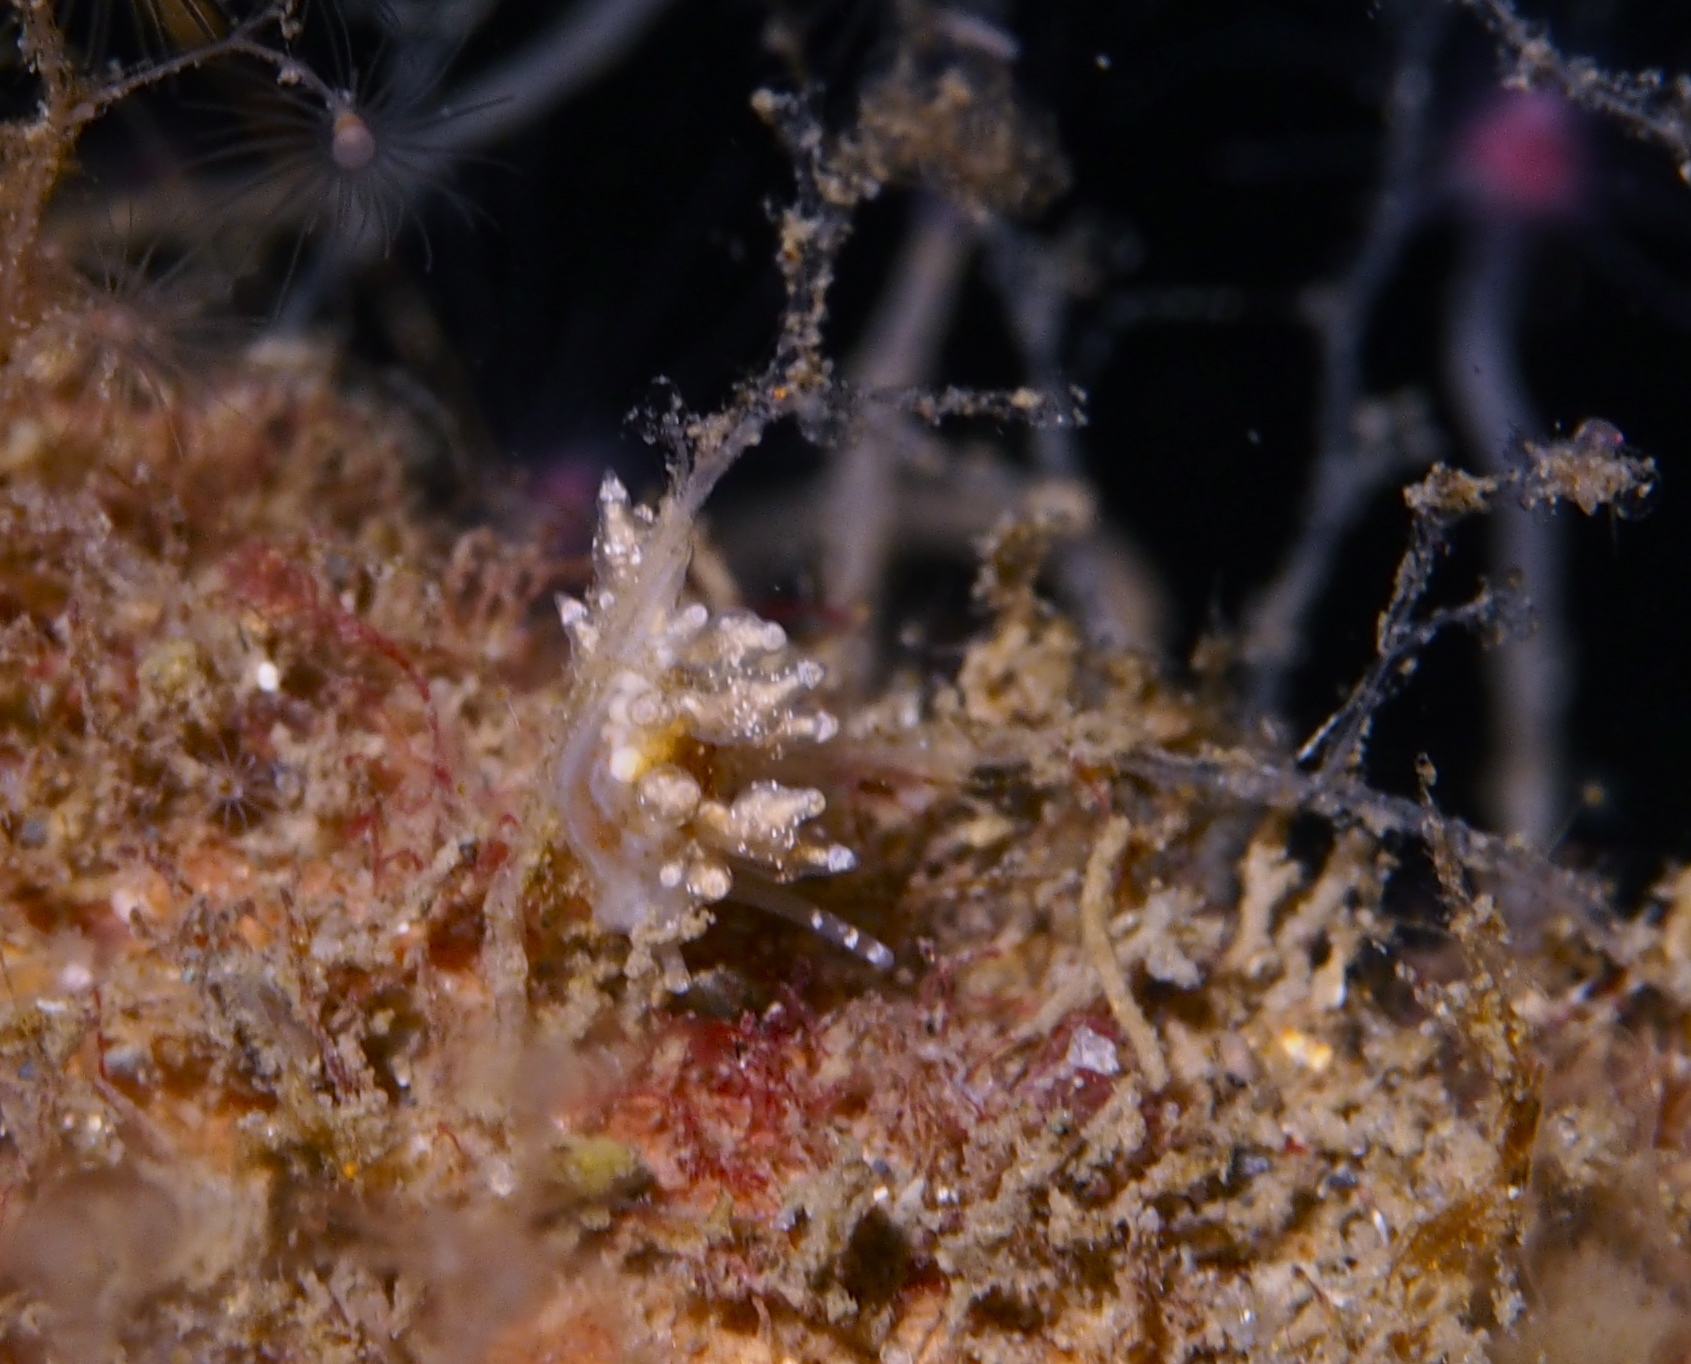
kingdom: Animalia
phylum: Mollusca
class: Gastropoda
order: Nudibranchia
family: Eubranchidae
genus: Eubranchus
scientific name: Eubranchus exiguus
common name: Balloon aeolis
